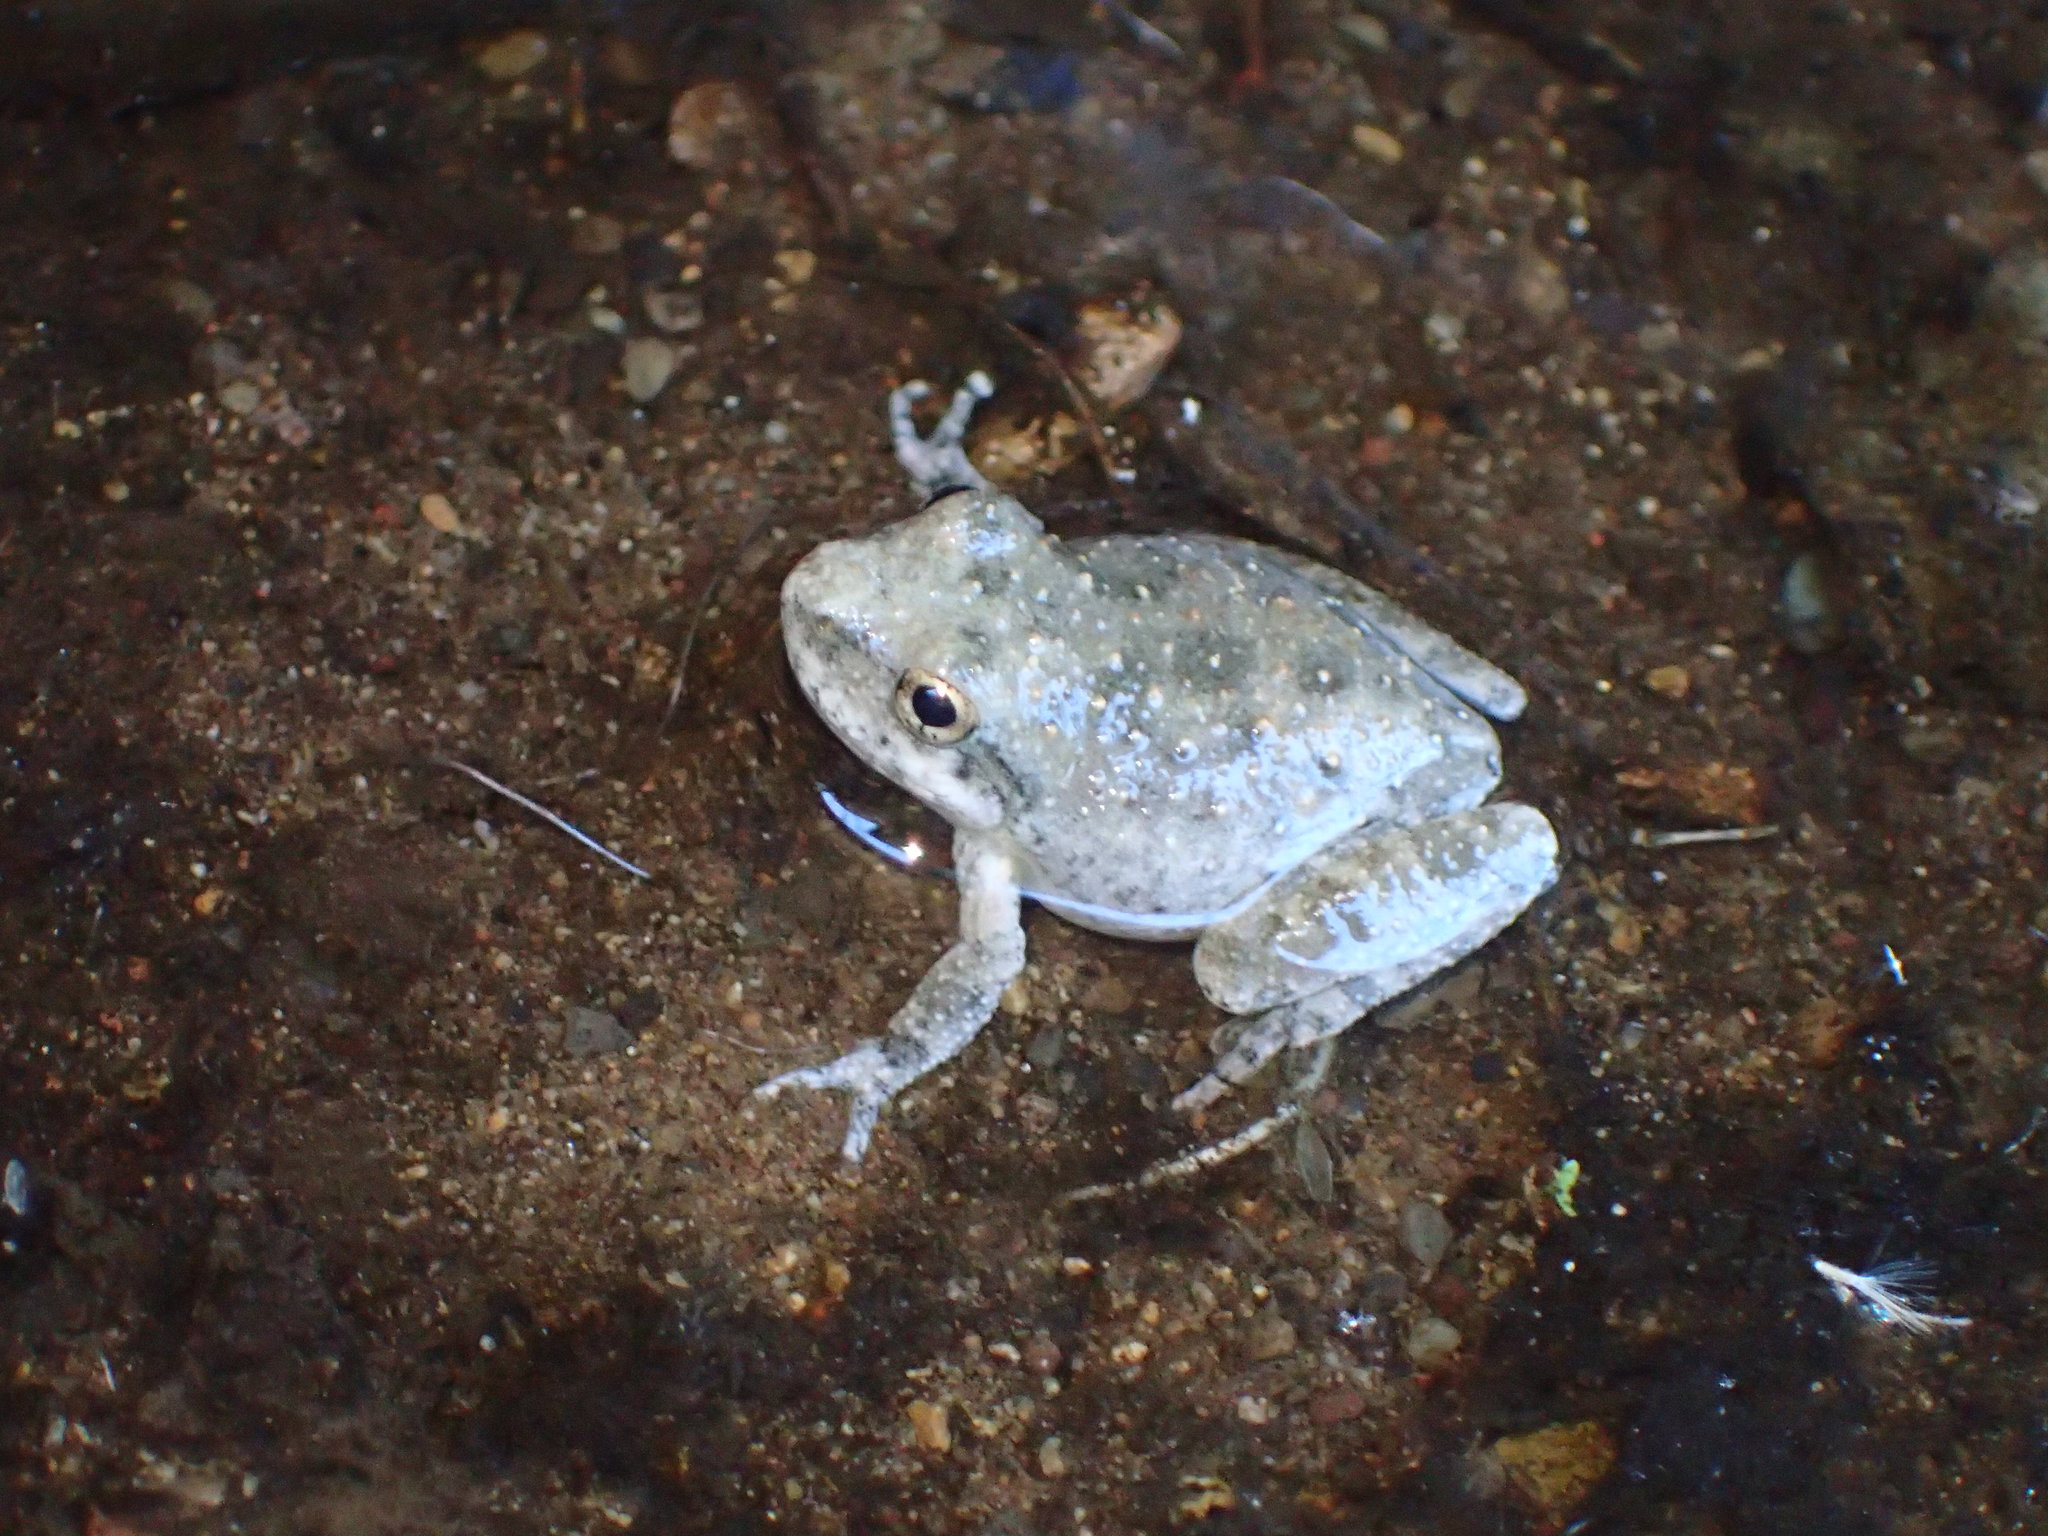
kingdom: Animalia
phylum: Chordata
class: Amphibia
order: Anura
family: Hylidae
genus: Pseudacris
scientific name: Pseudacris cadaverina
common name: California chorus frog
